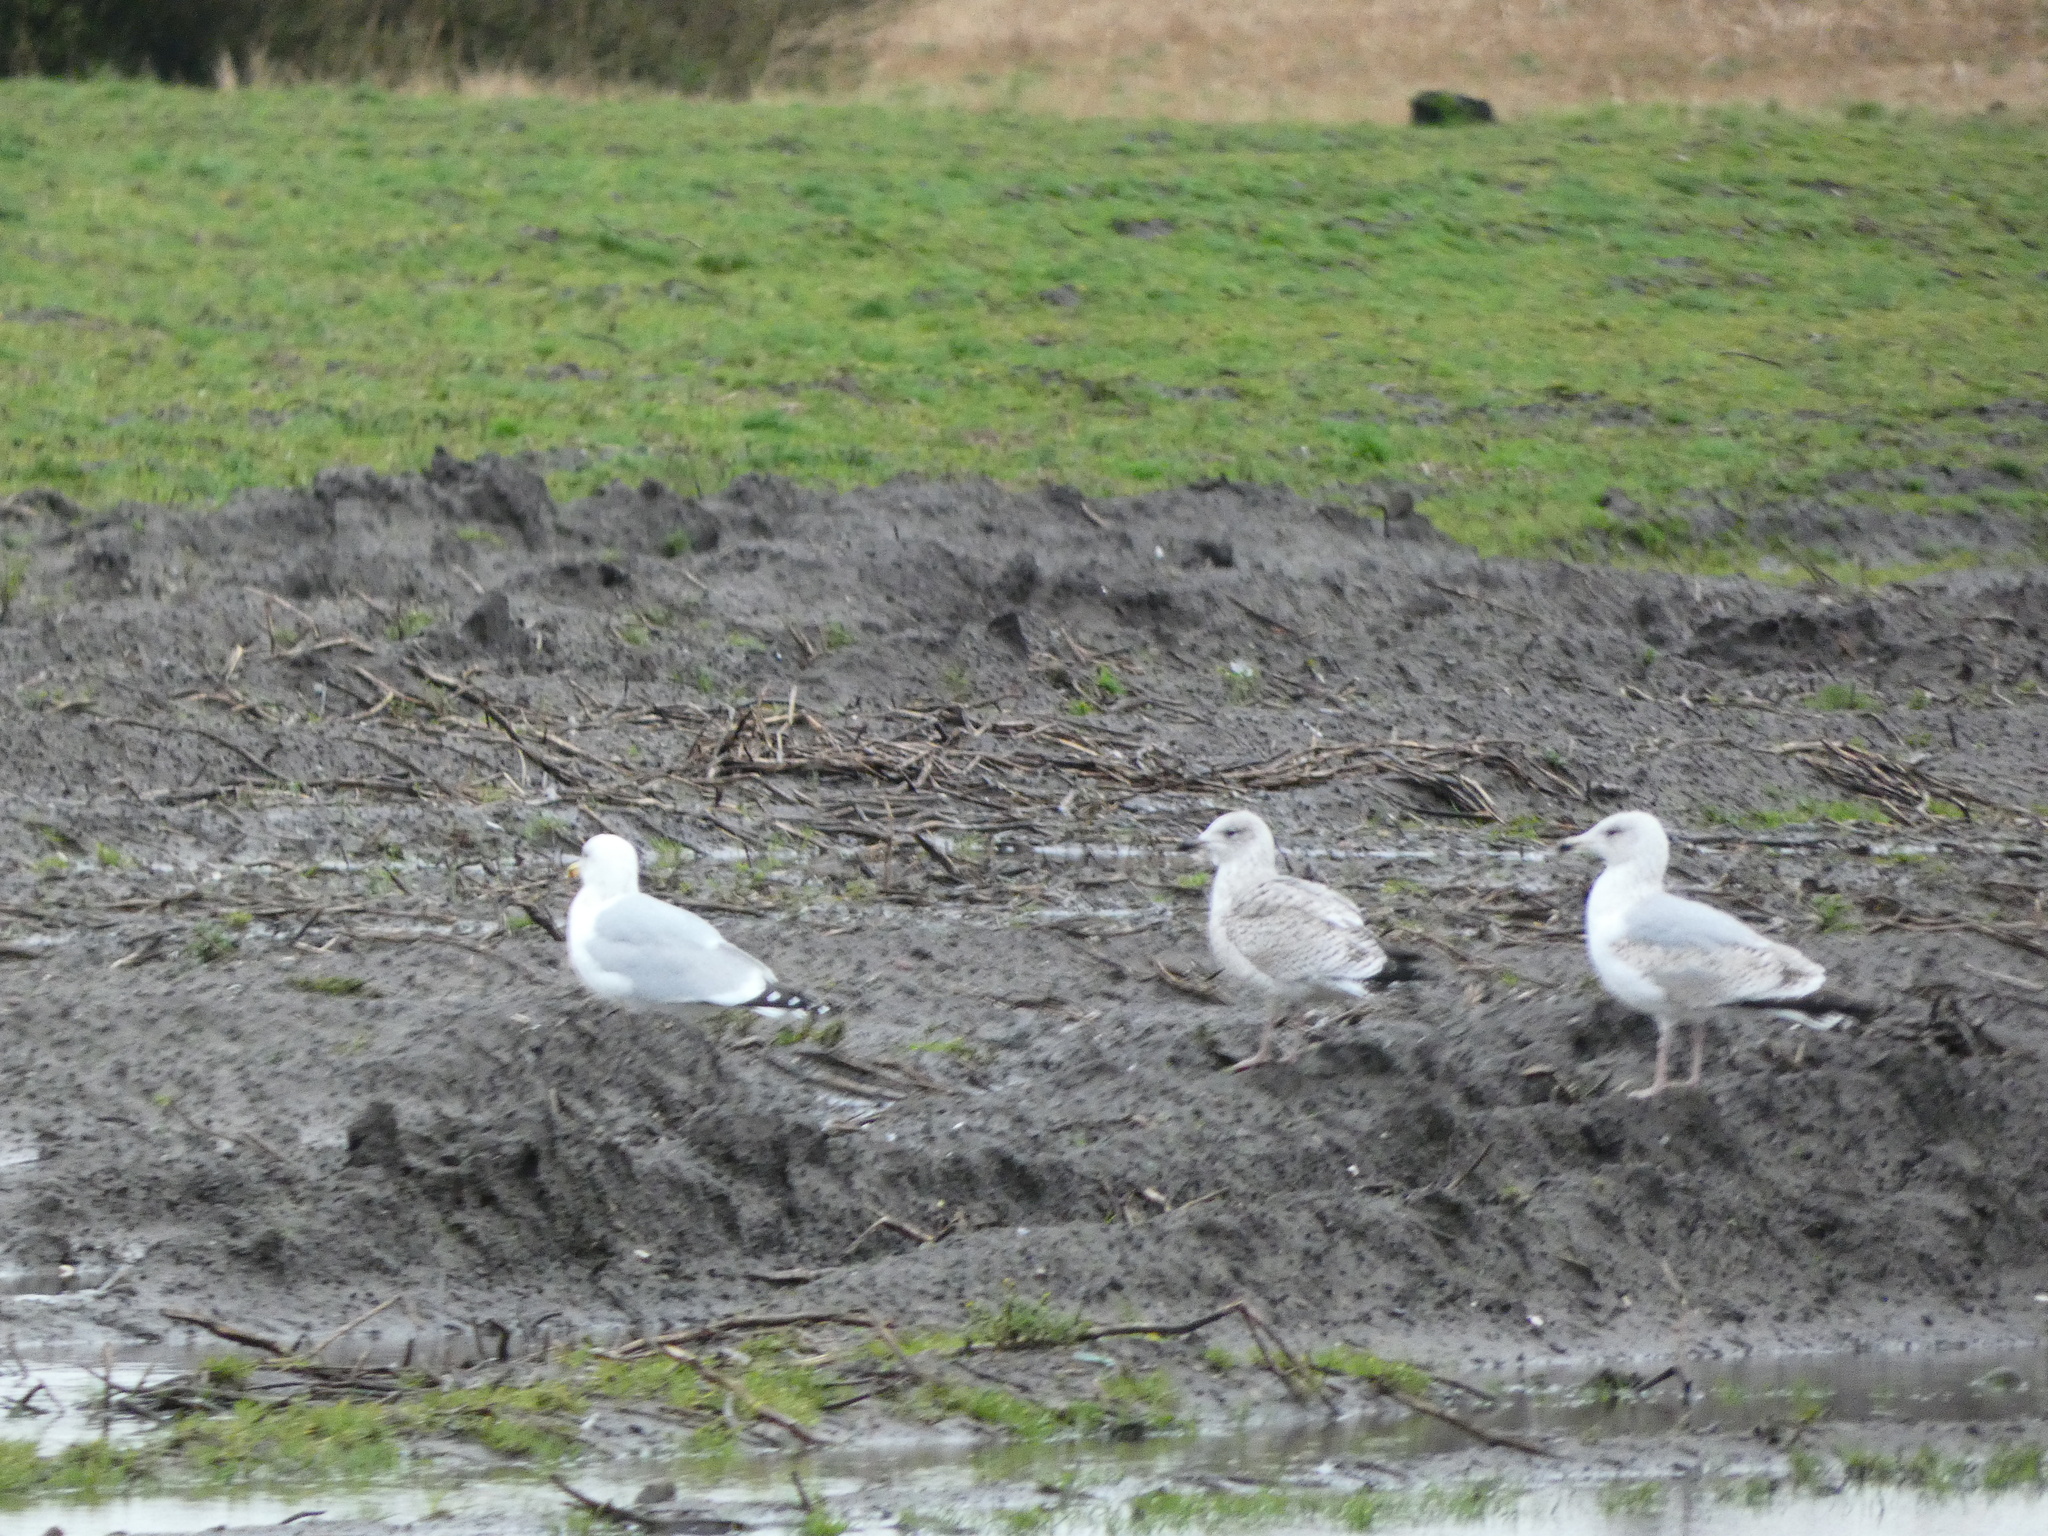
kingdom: Animalia
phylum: Chordata
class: Aves
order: Charadriiformes
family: Laridae
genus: Larus
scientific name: Larus argentatus
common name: Herring gull
